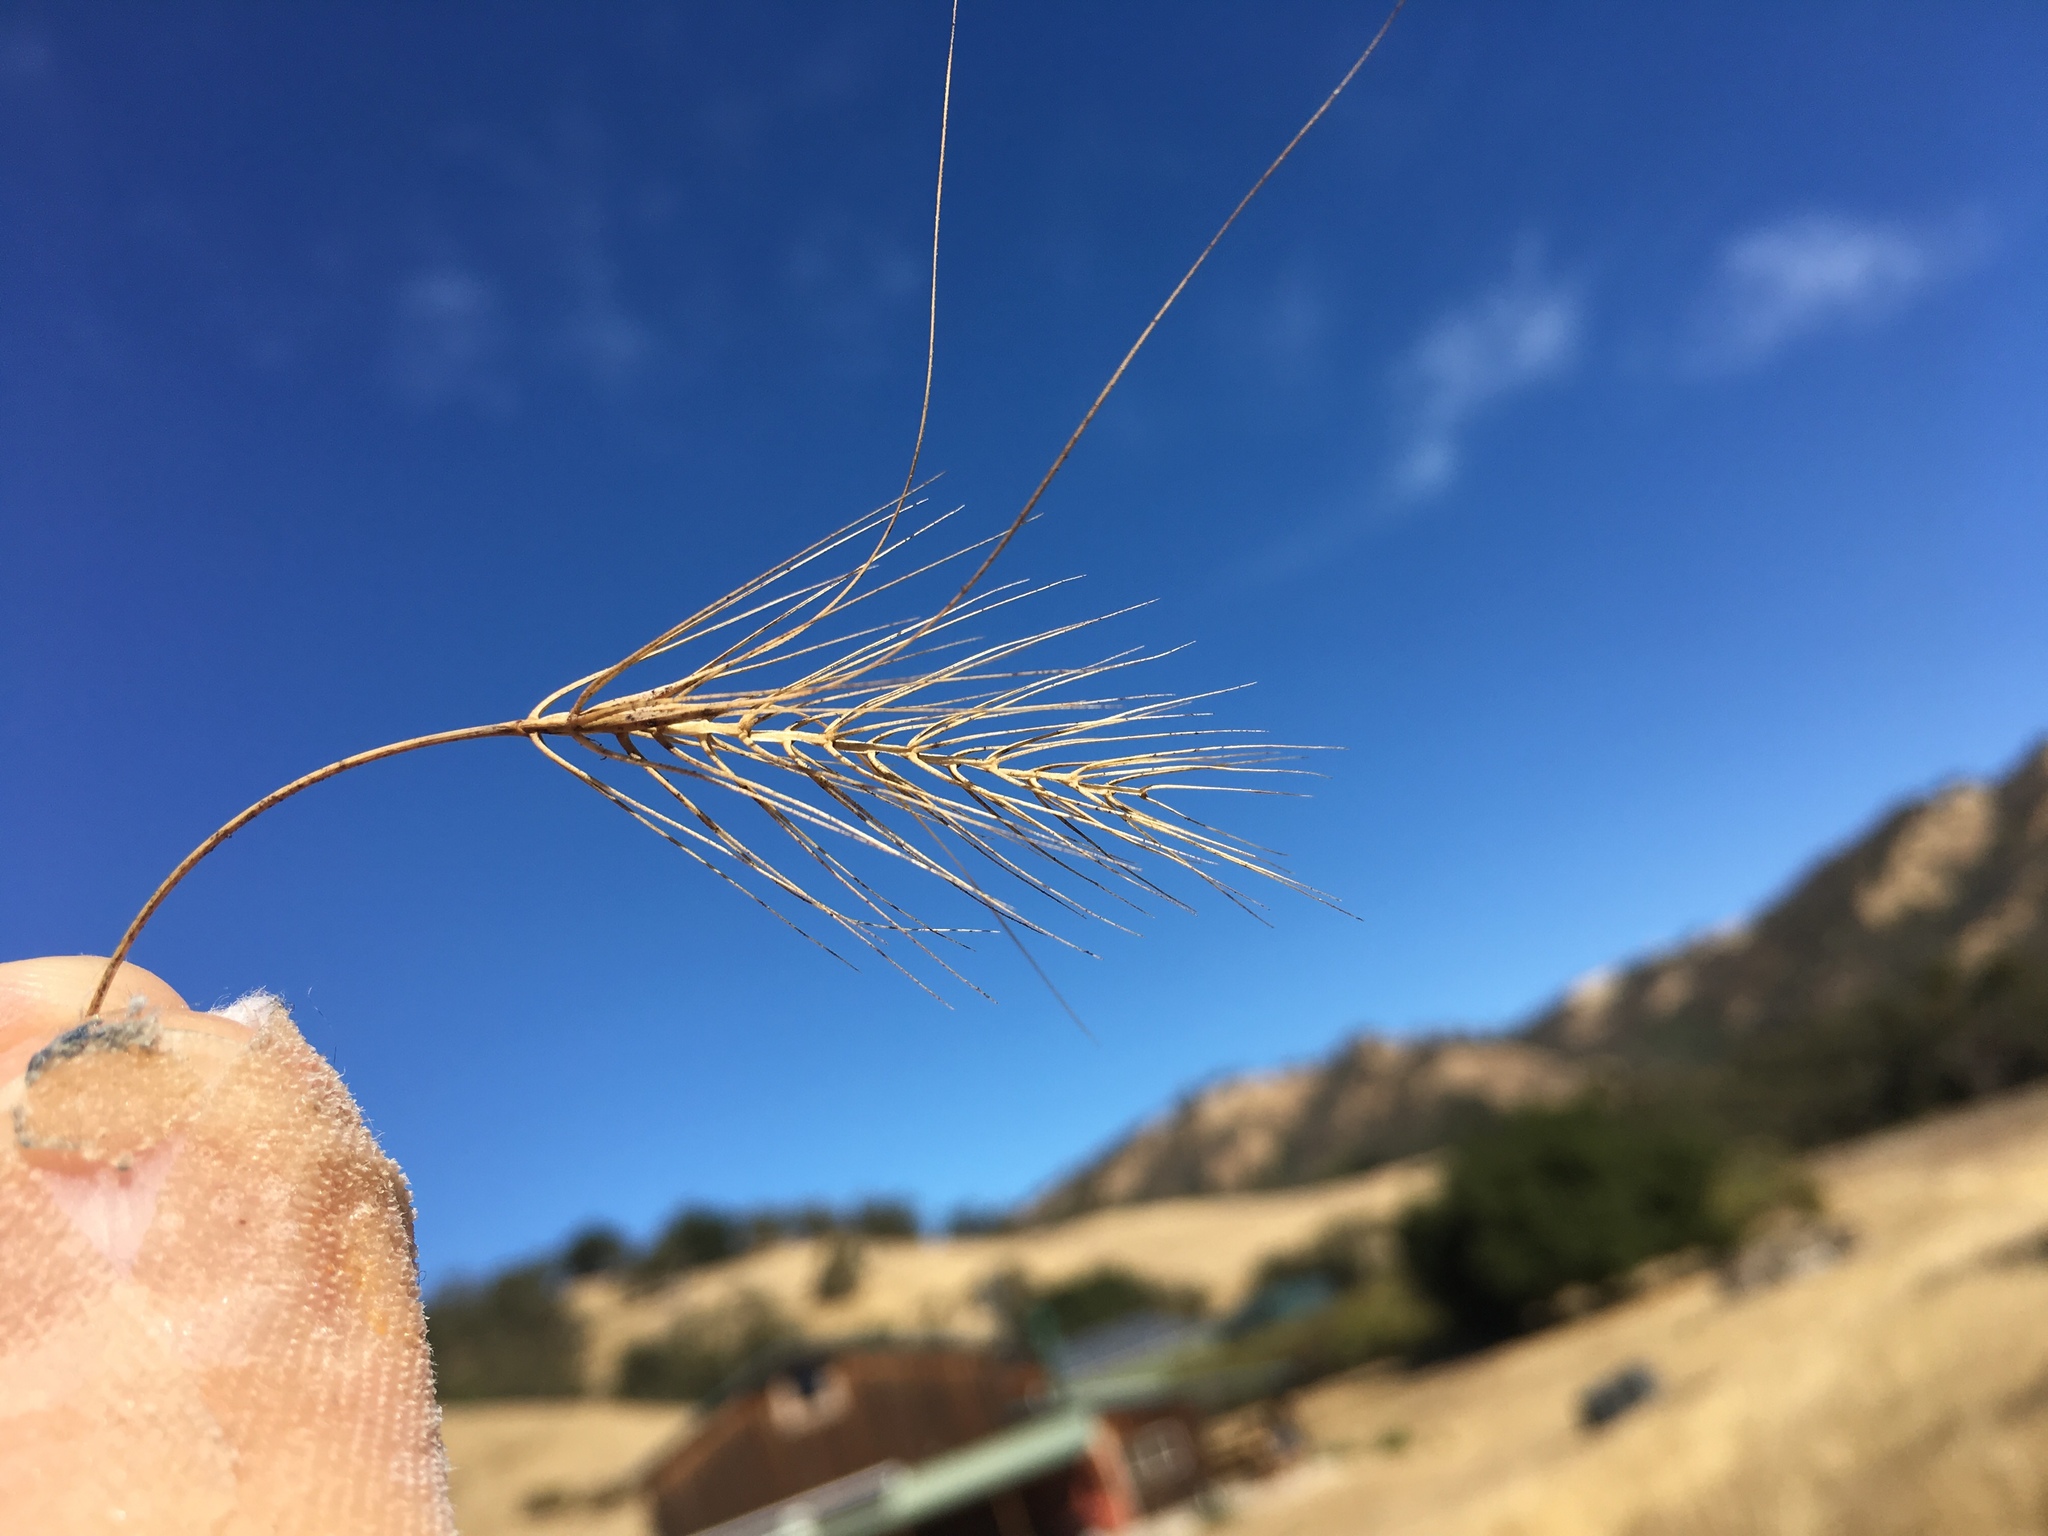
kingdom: Plantae
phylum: Tracheophyta
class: Liliopsida
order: Poales
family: Poaceae
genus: Taeniatherum
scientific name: Taeniatherum caput-medusae
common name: Medusahead
